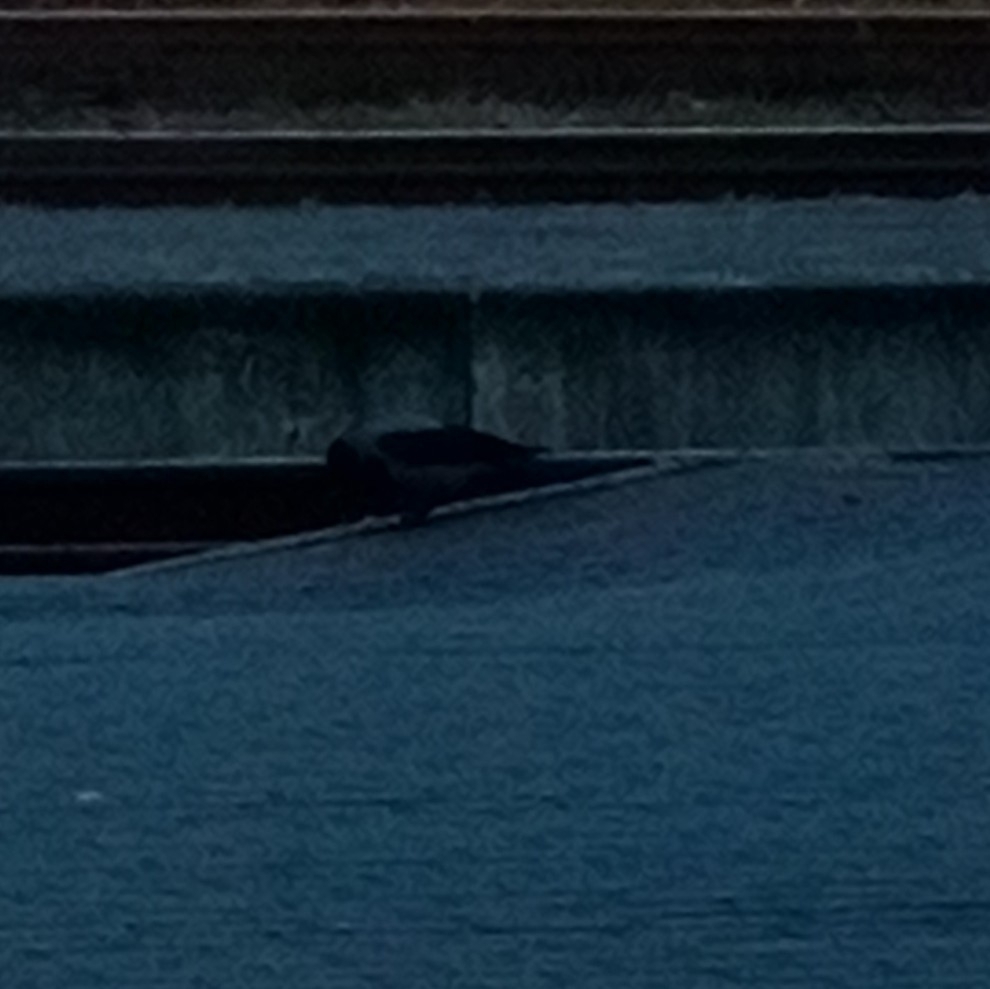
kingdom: Animalia
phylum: Chordata
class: Aves
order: Passeriformes
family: Corvidae
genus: Corvus
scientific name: Corvus cornix
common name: Hooded crow
